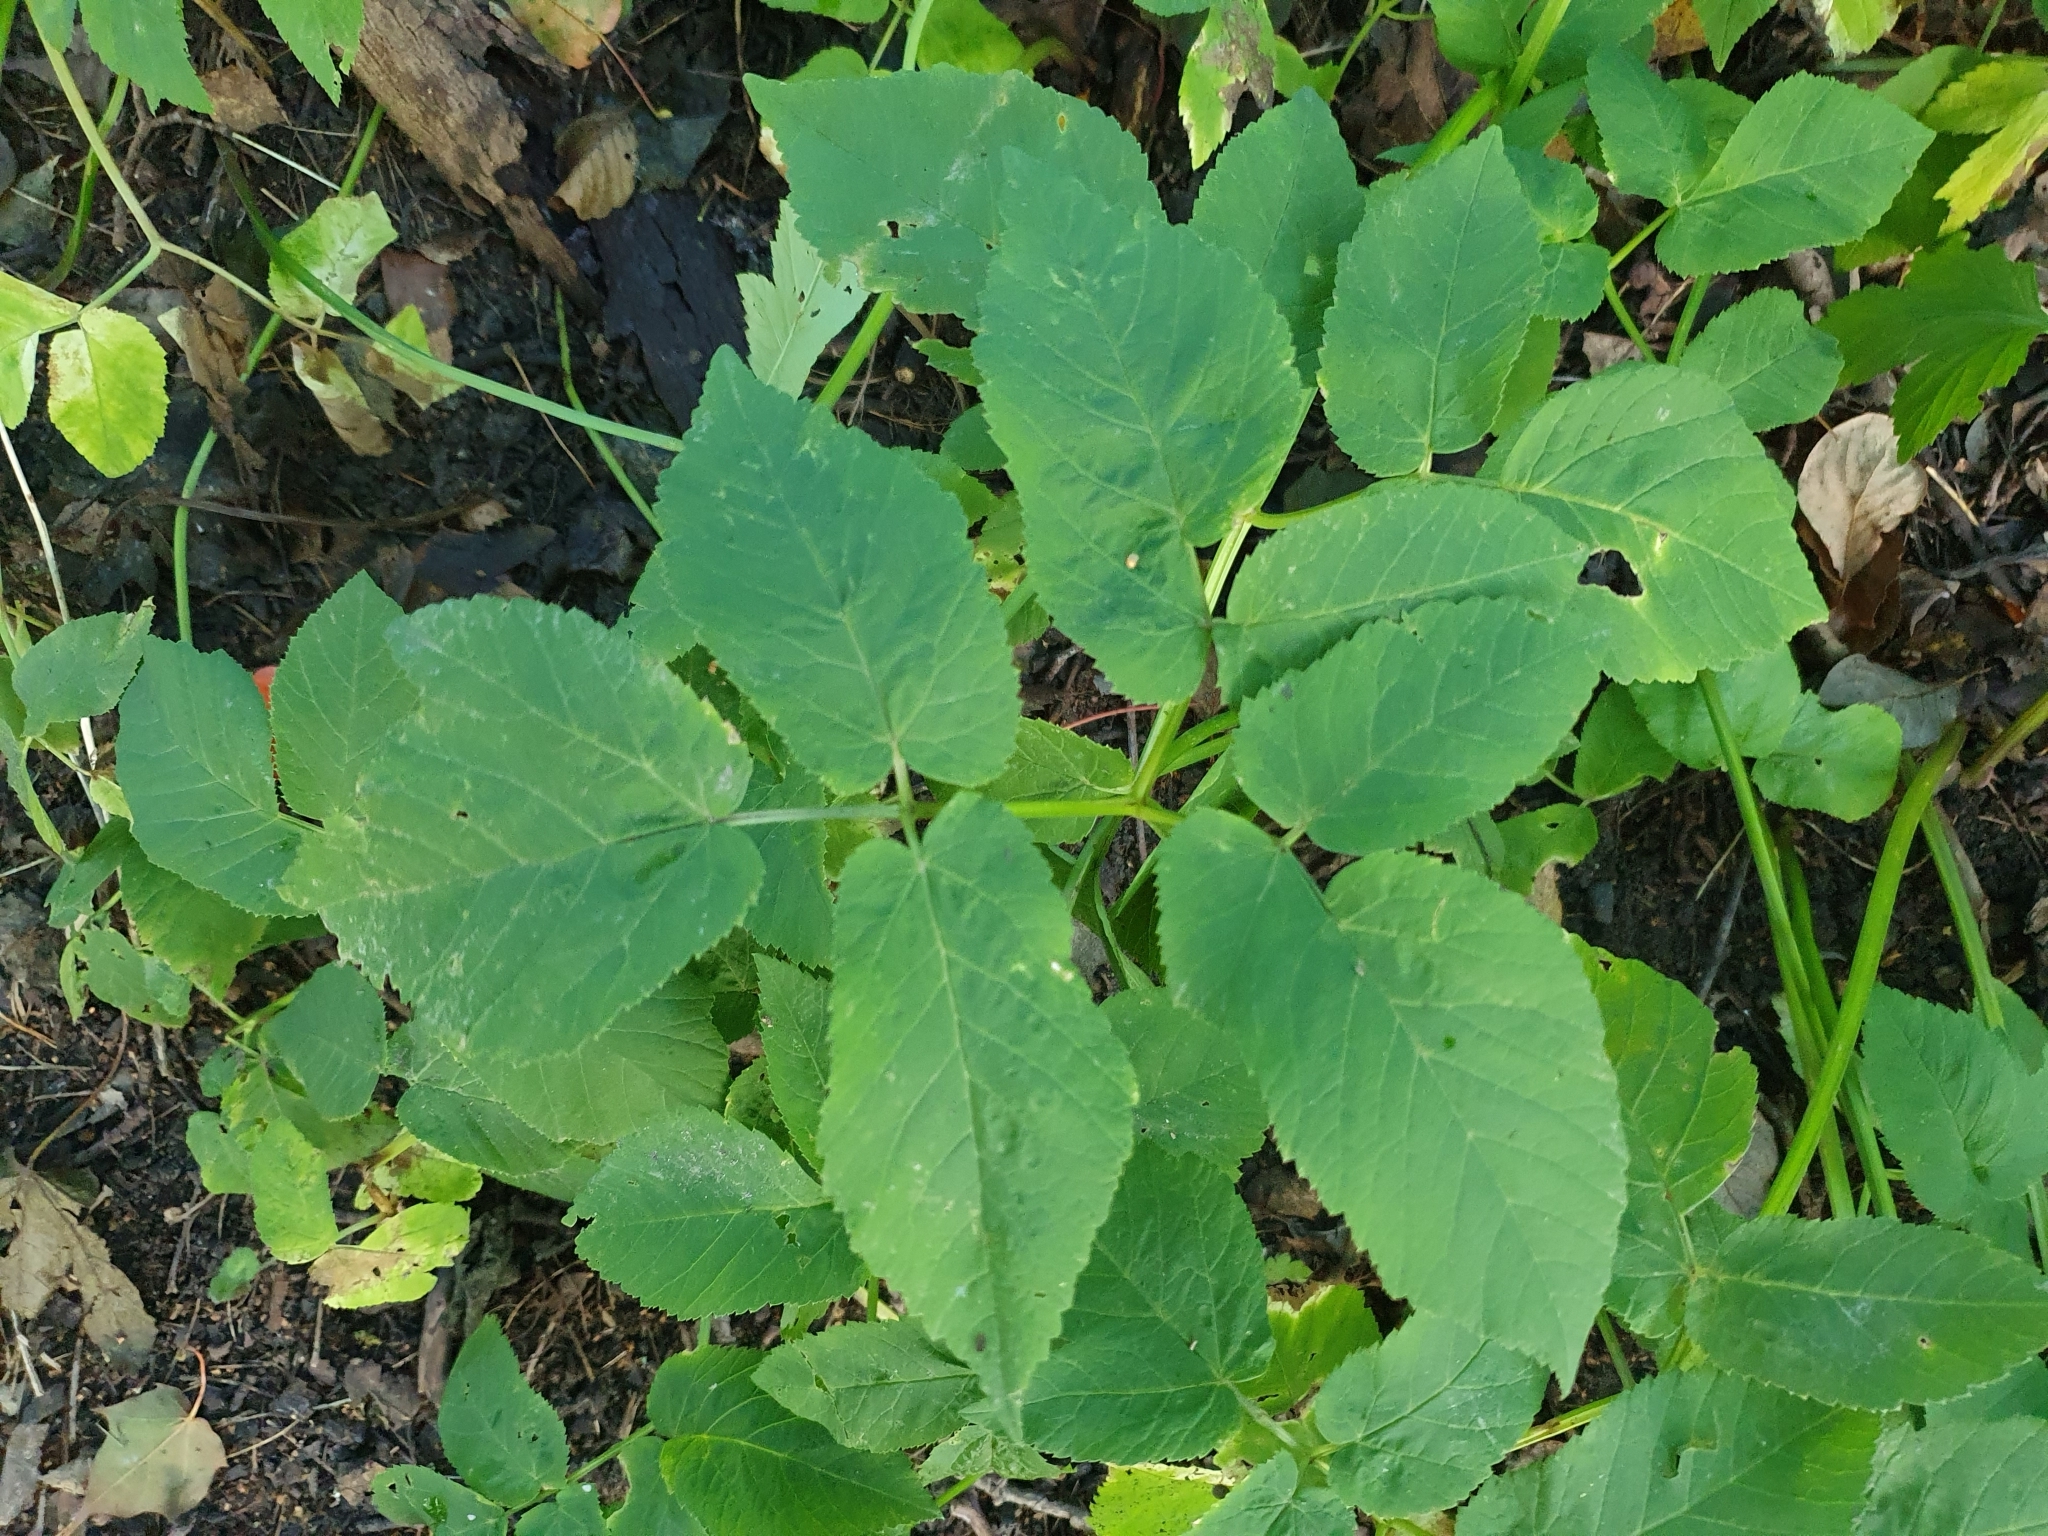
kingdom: Plantae
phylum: Tracheophyta
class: Magnoliopsida
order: Apiales
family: Apiaceae
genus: Aegopodium
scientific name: Aegopodium podagraria
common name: Ground-elder
